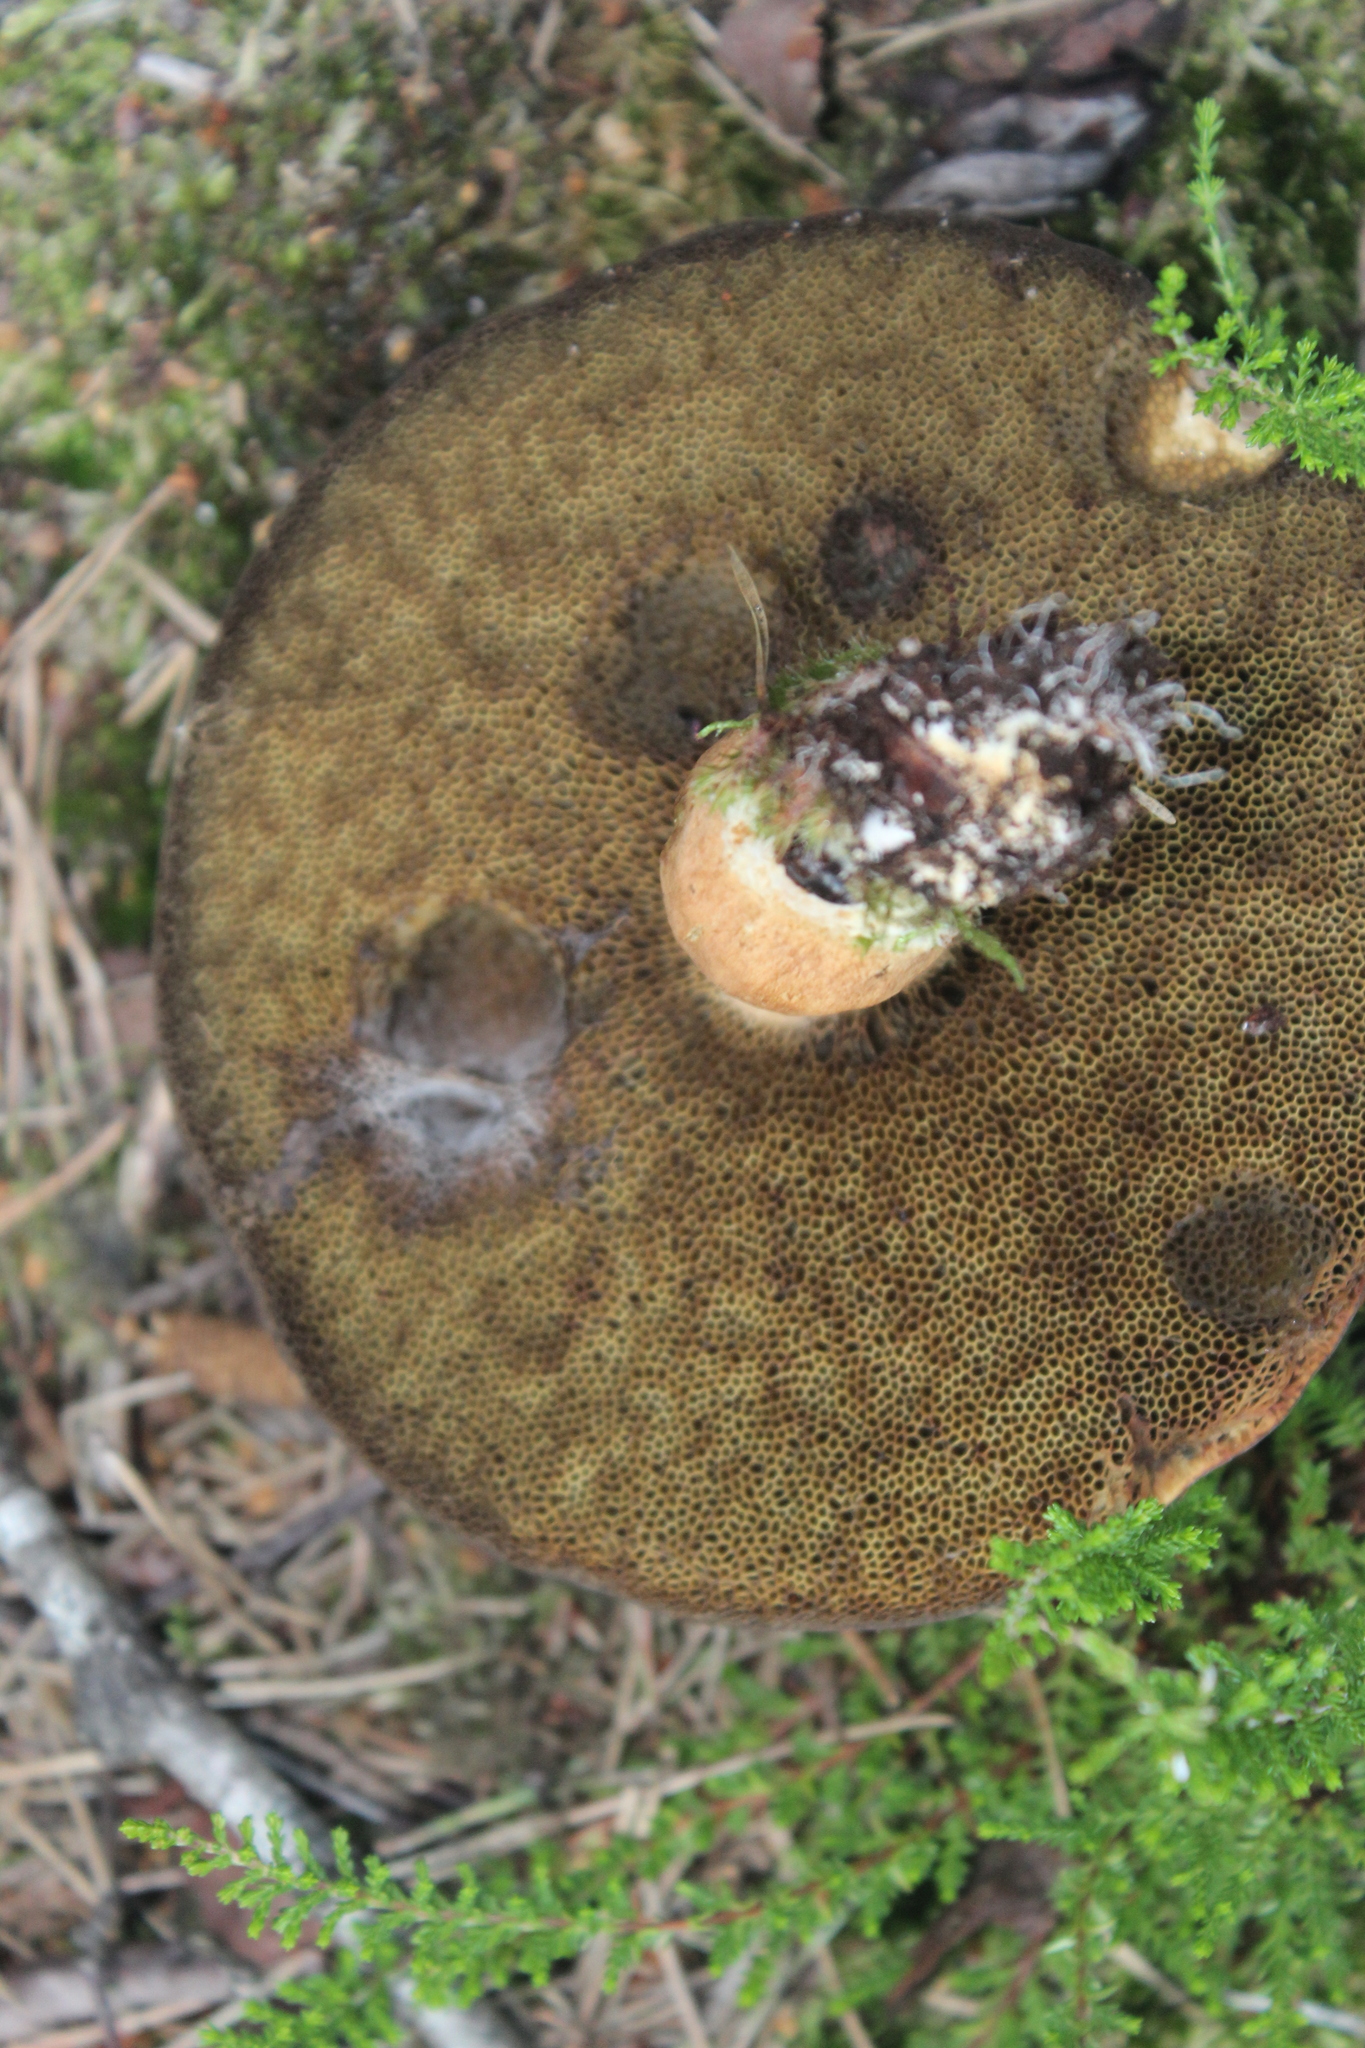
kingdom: Fungi
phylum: Basidiomycota
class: Agaricomycetes
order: Boletales
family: Boletaceae
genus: Imleria
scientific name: Imleria badia
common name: Bay bolete
